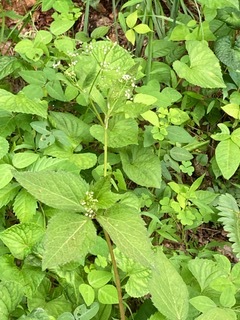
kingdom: Plantae
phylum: Tracheophyta
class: Magnoliopsida
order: Apiales
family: Apiaceae
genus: Cryptotaenia
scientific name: Cryptotaenia canadensis
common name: Honewort
